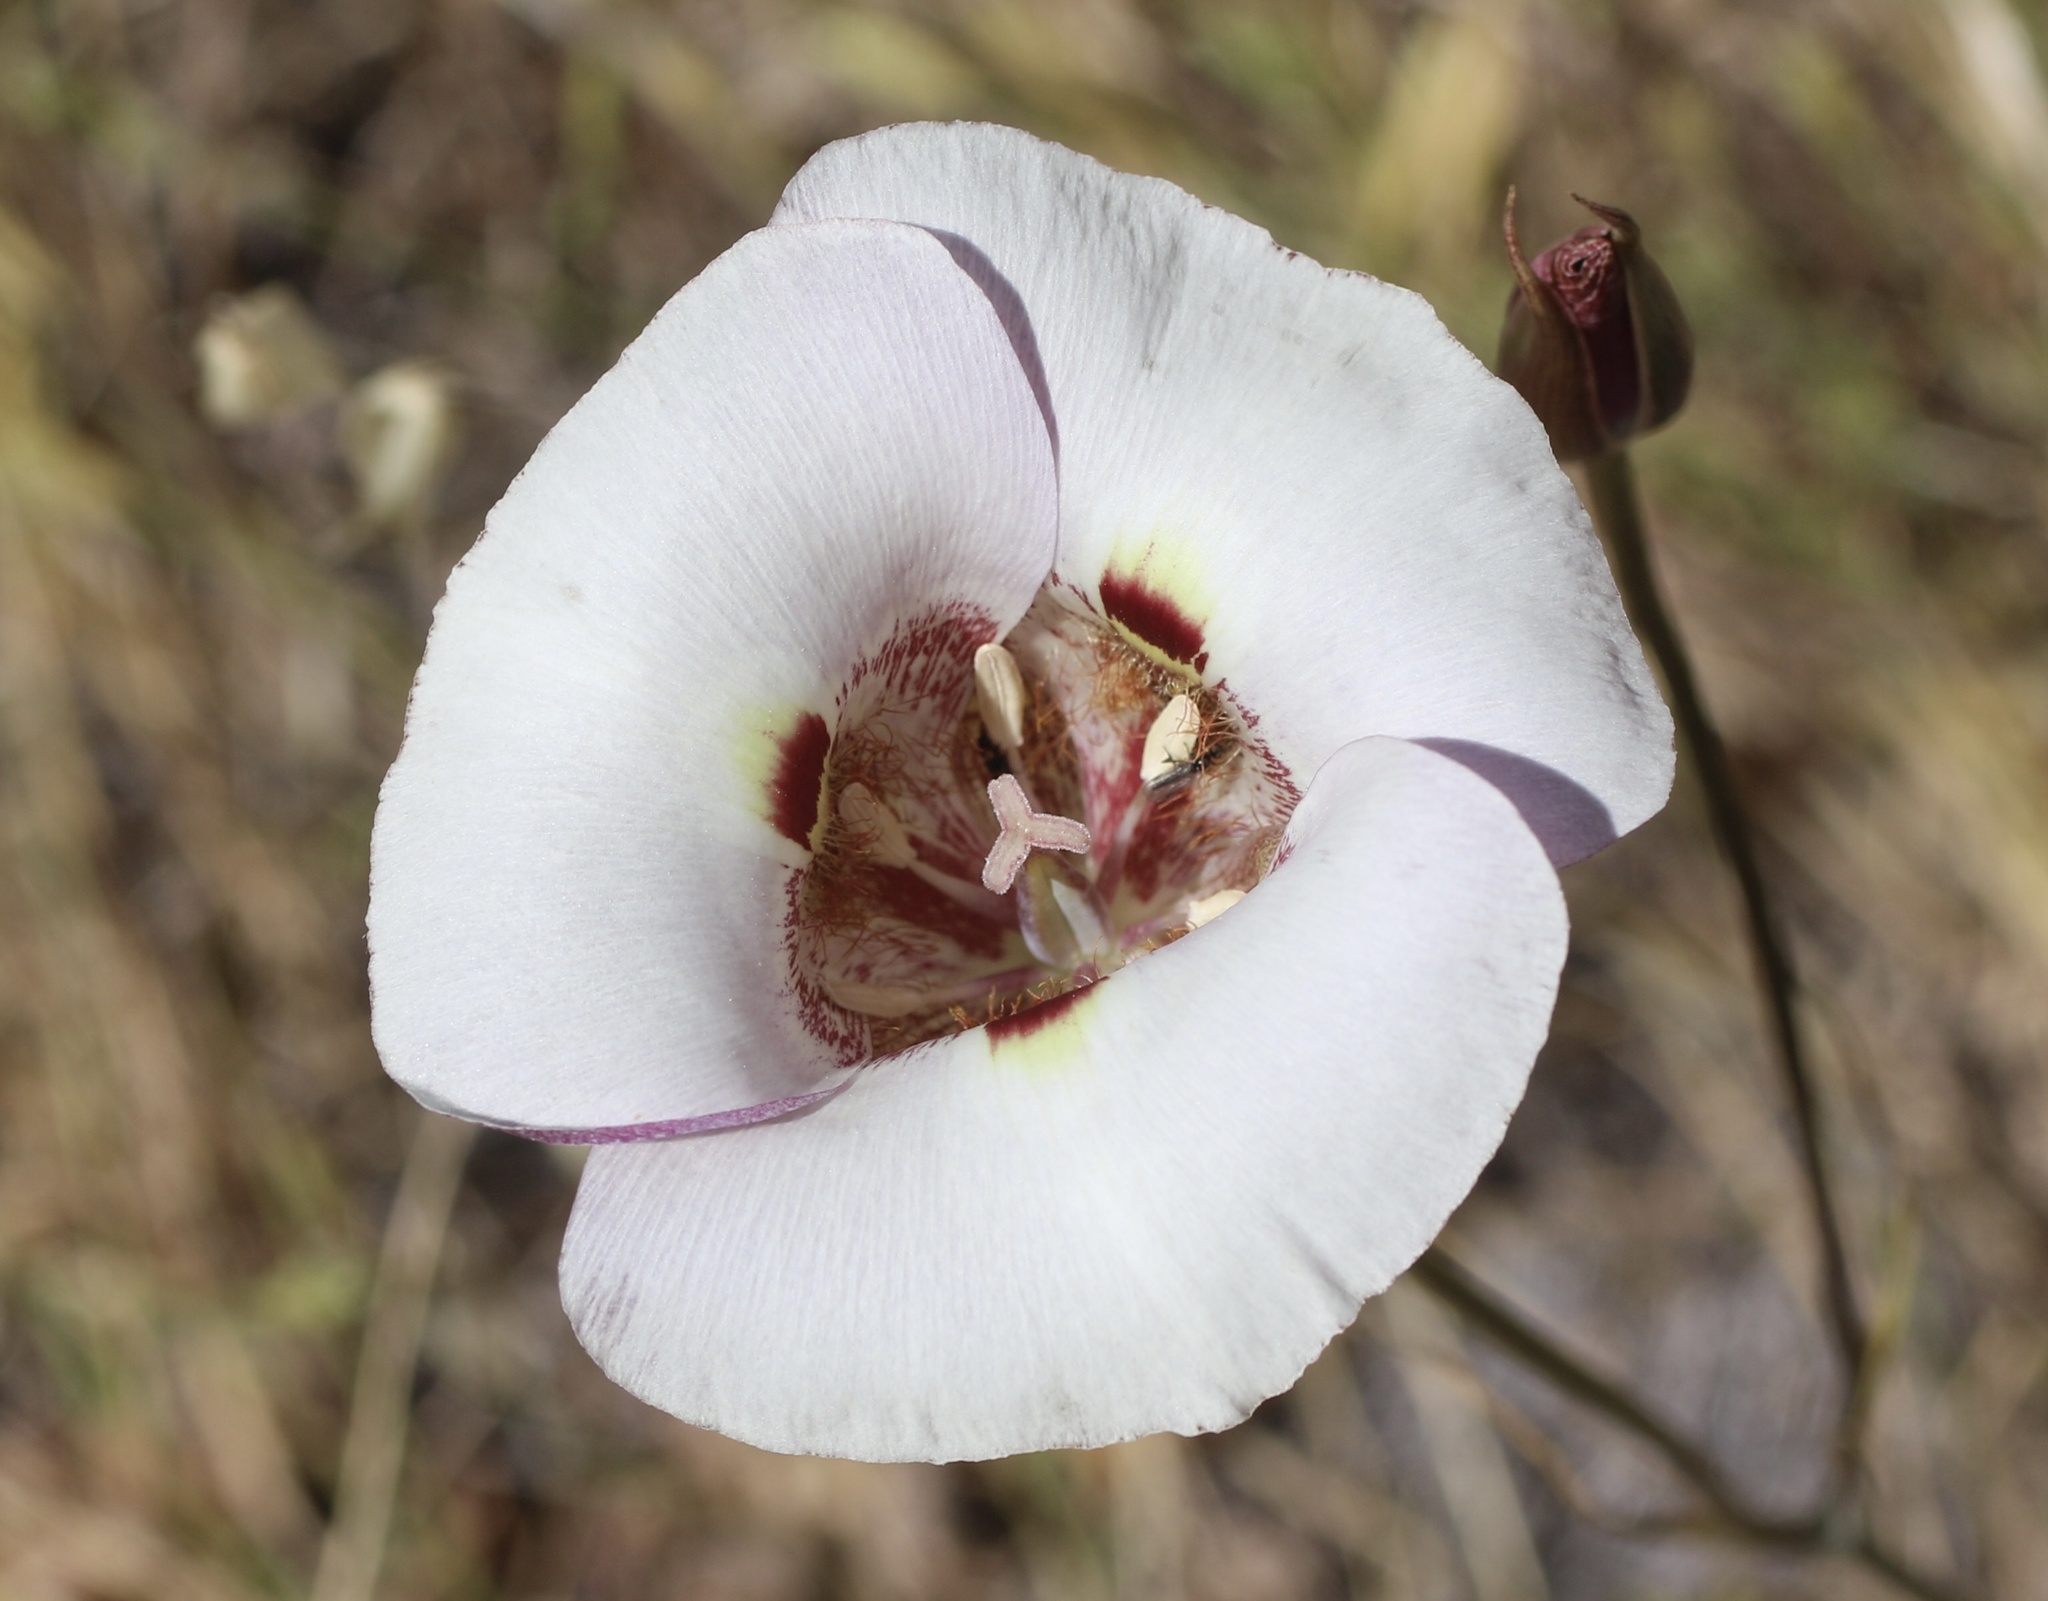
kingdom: Plantae
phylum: Tracheophyta
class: Liliopsida
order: Liliales
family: Liliaceae
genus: Calochortus
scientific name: Calochortus argillosus
